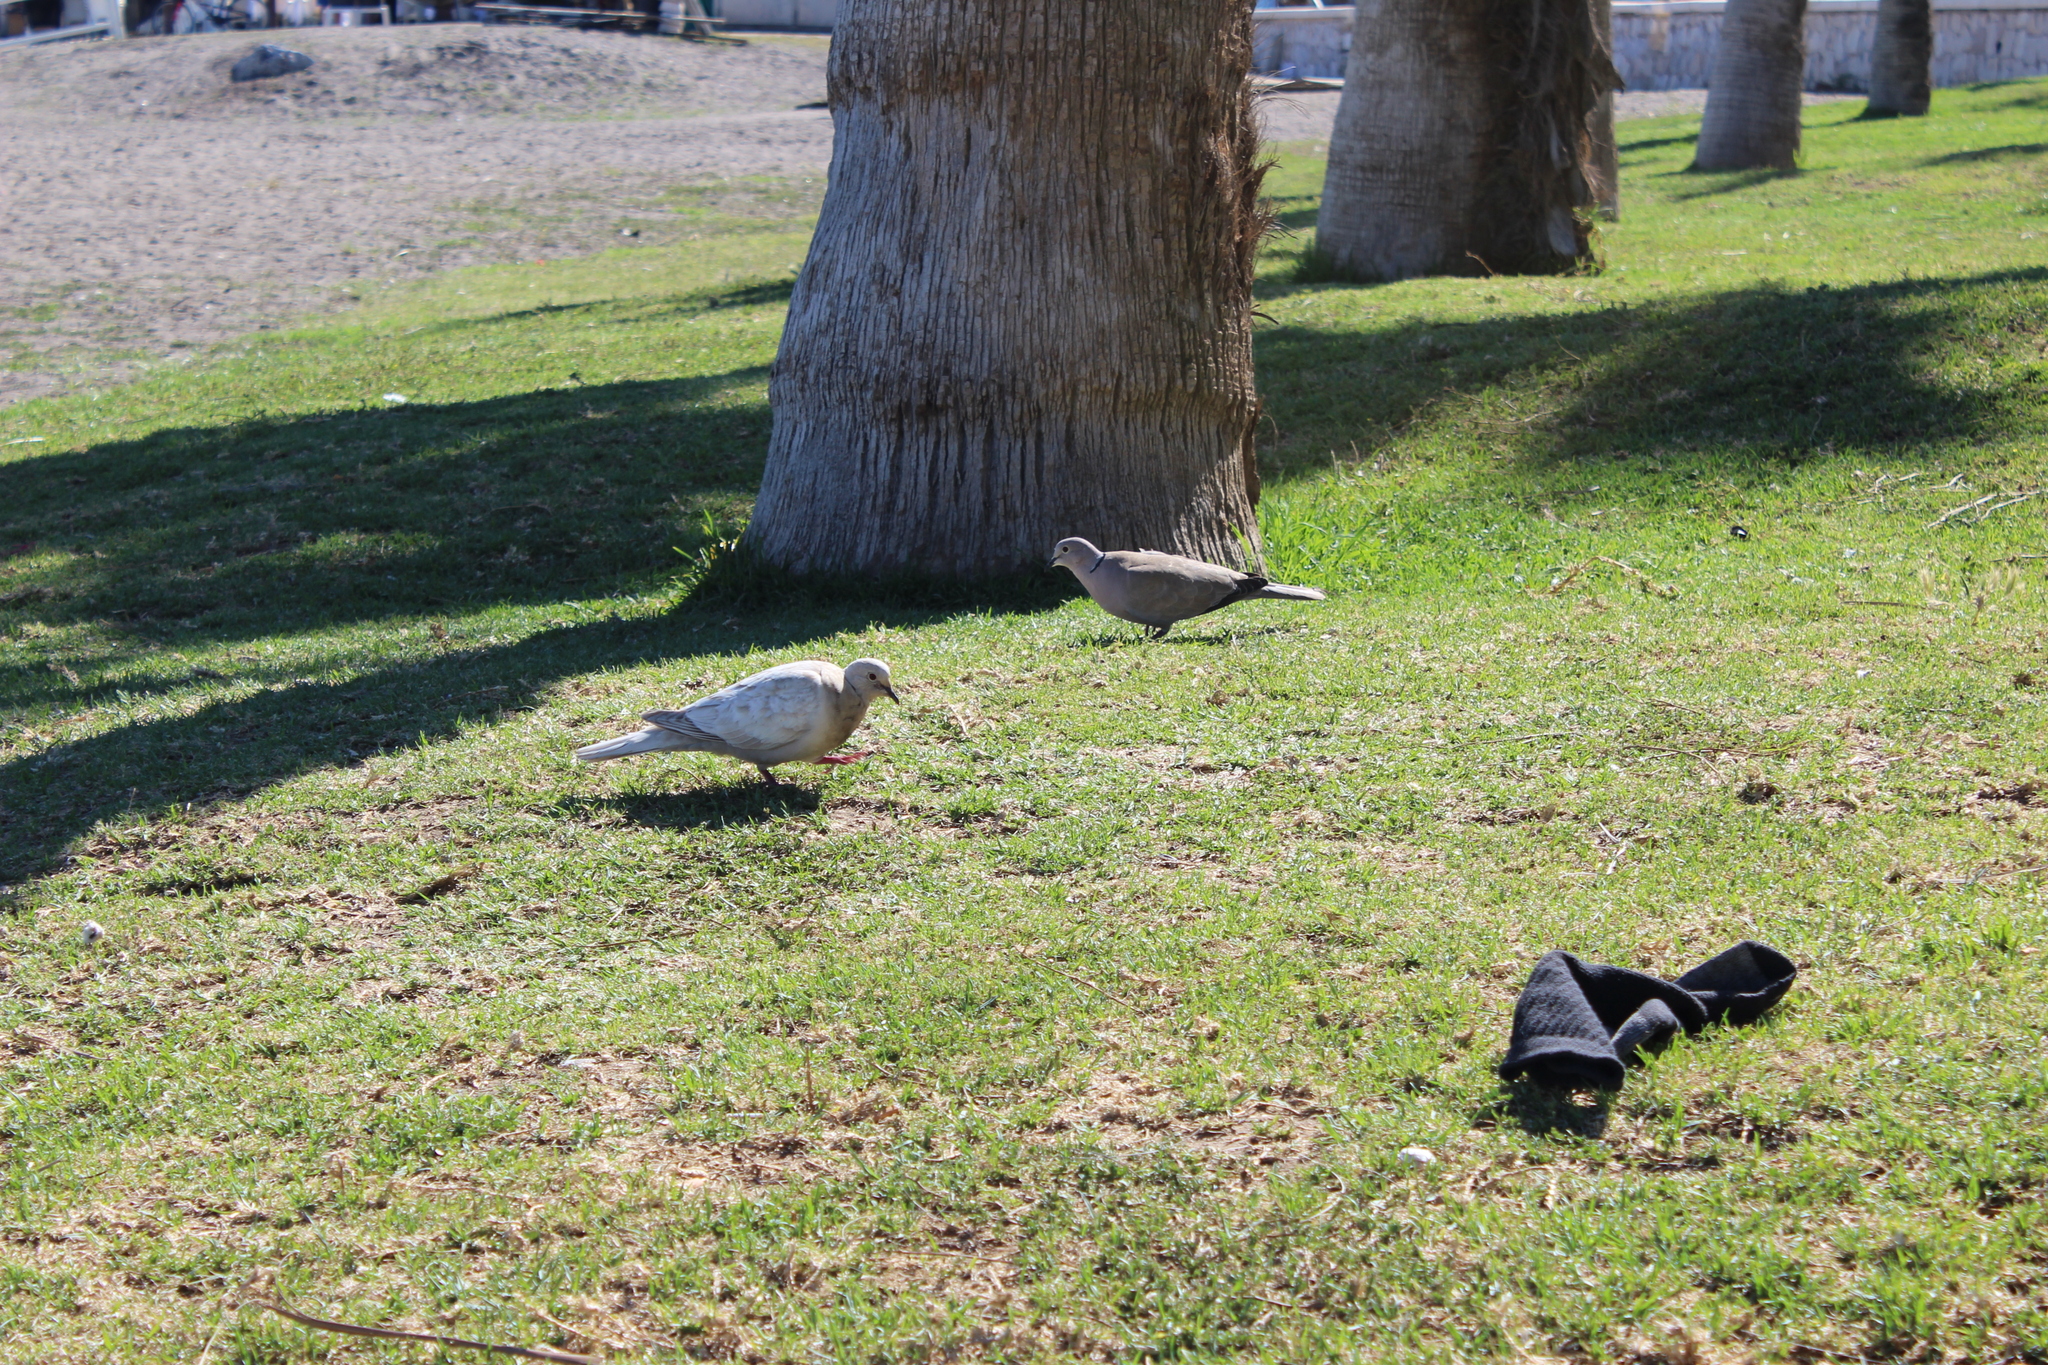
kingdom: Animalia
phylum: Chordata
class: Aves
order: Columbiformes
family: Columbidae
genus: Streptopelia
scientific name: Streptopelia decaocto
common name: Eurasian collared dove
